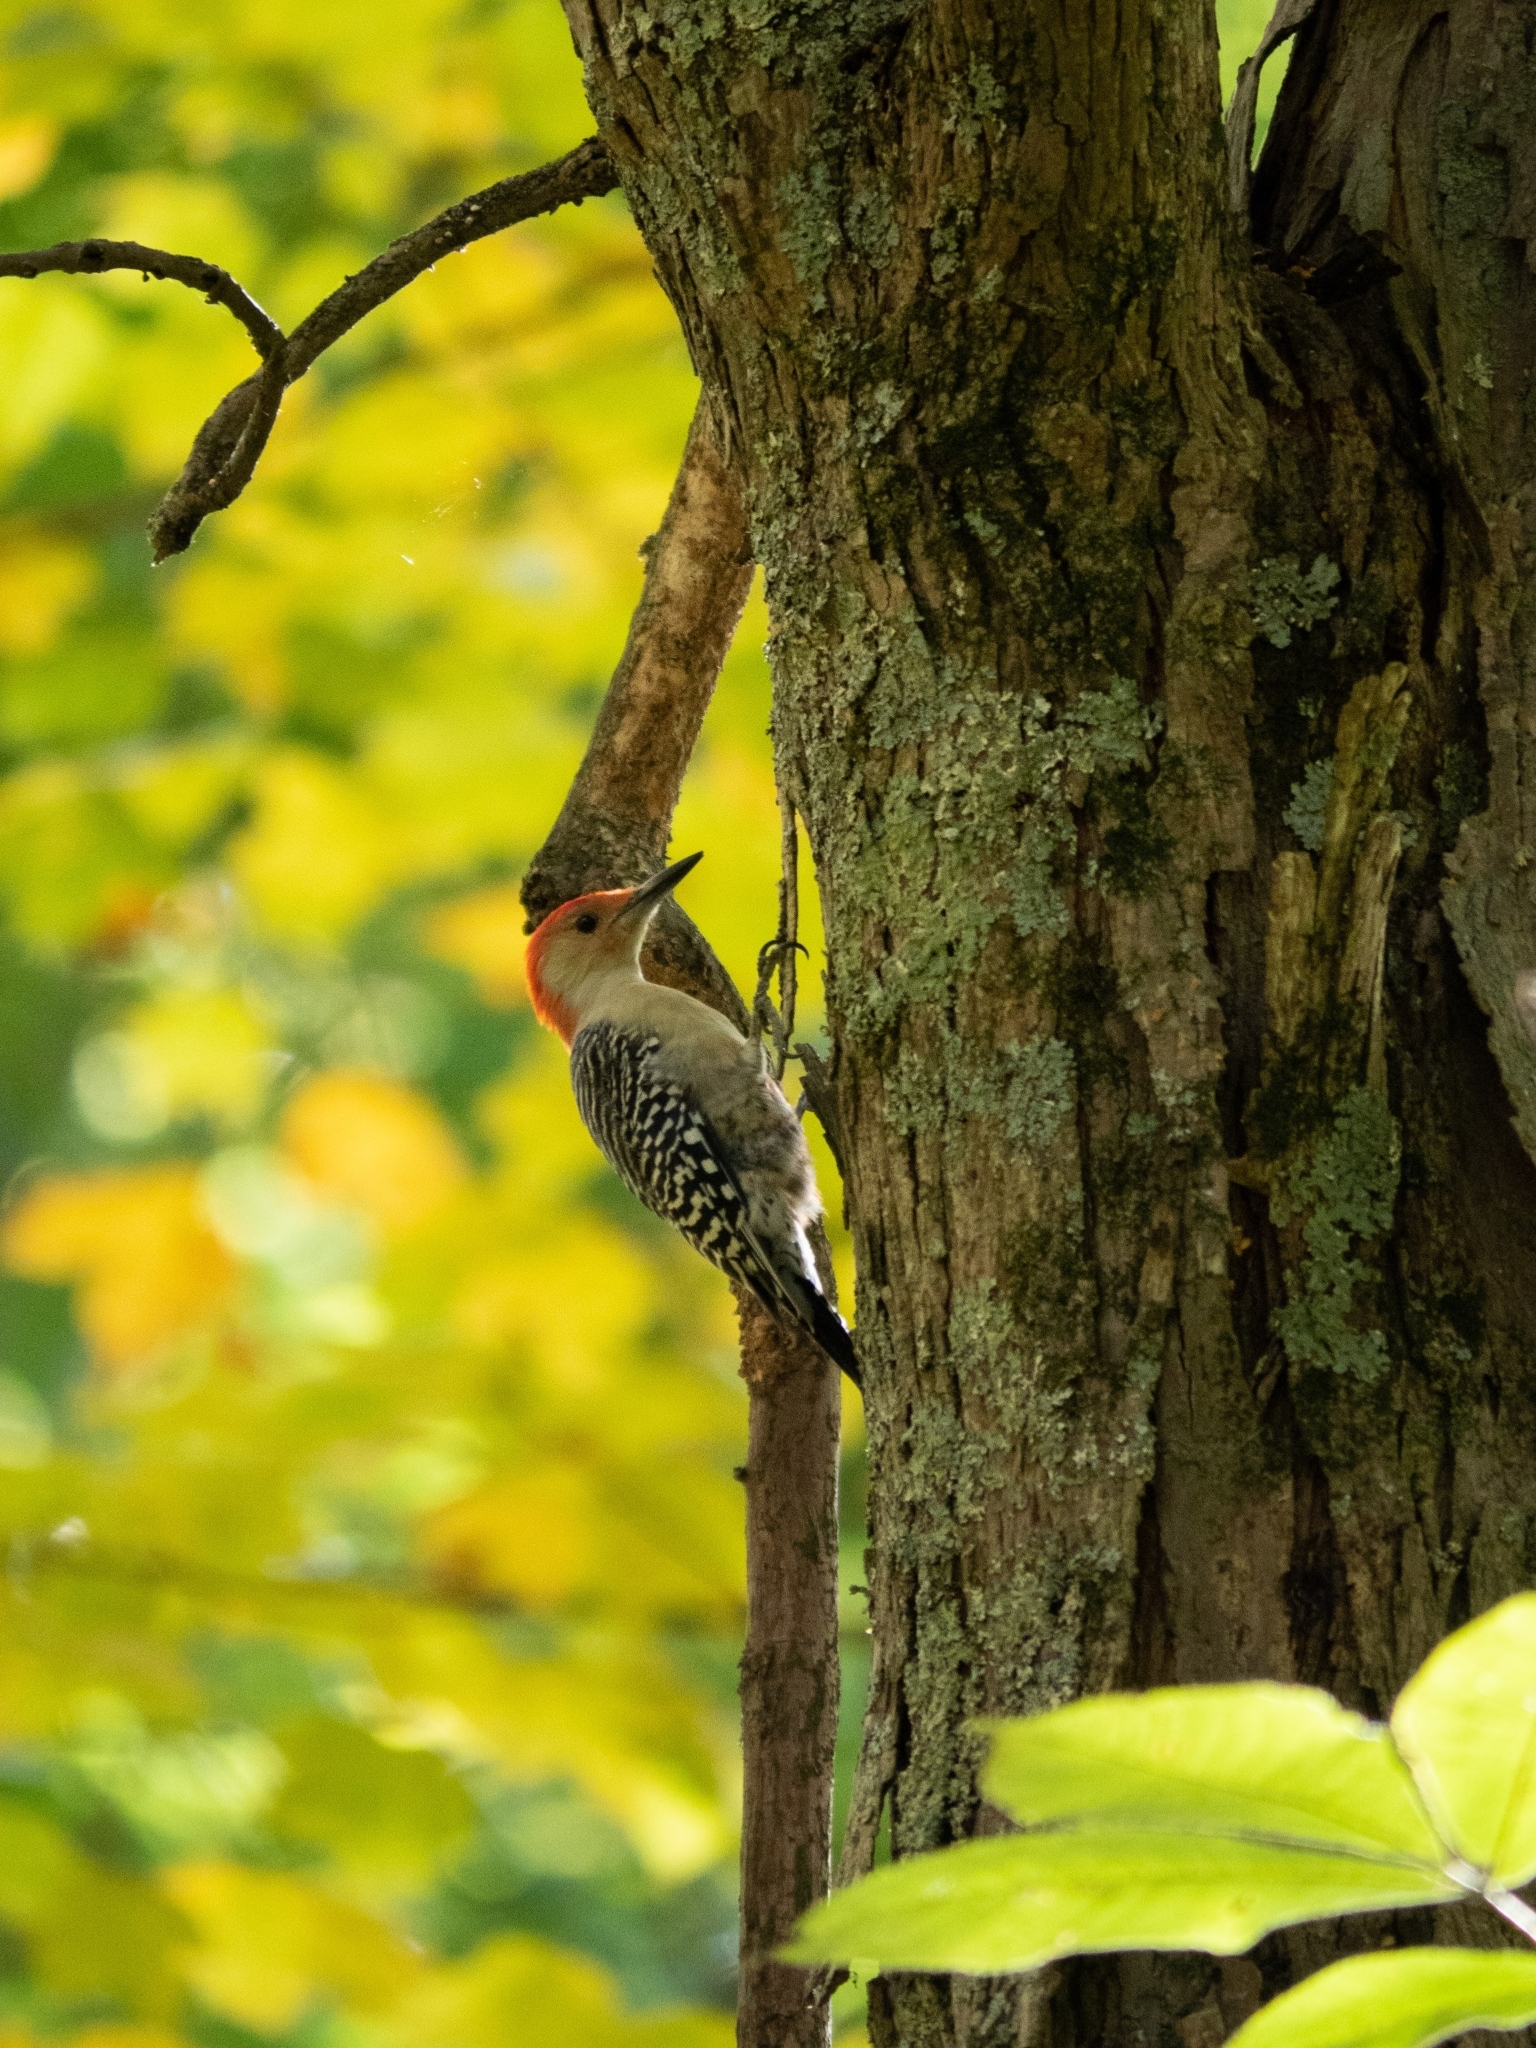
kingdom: Animalia
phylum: Chordata
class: Aves
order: Piciformes
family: Picidae
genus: Melanerpes
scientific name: Melanerpes carolinus
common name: Red-bellied woodpecker
